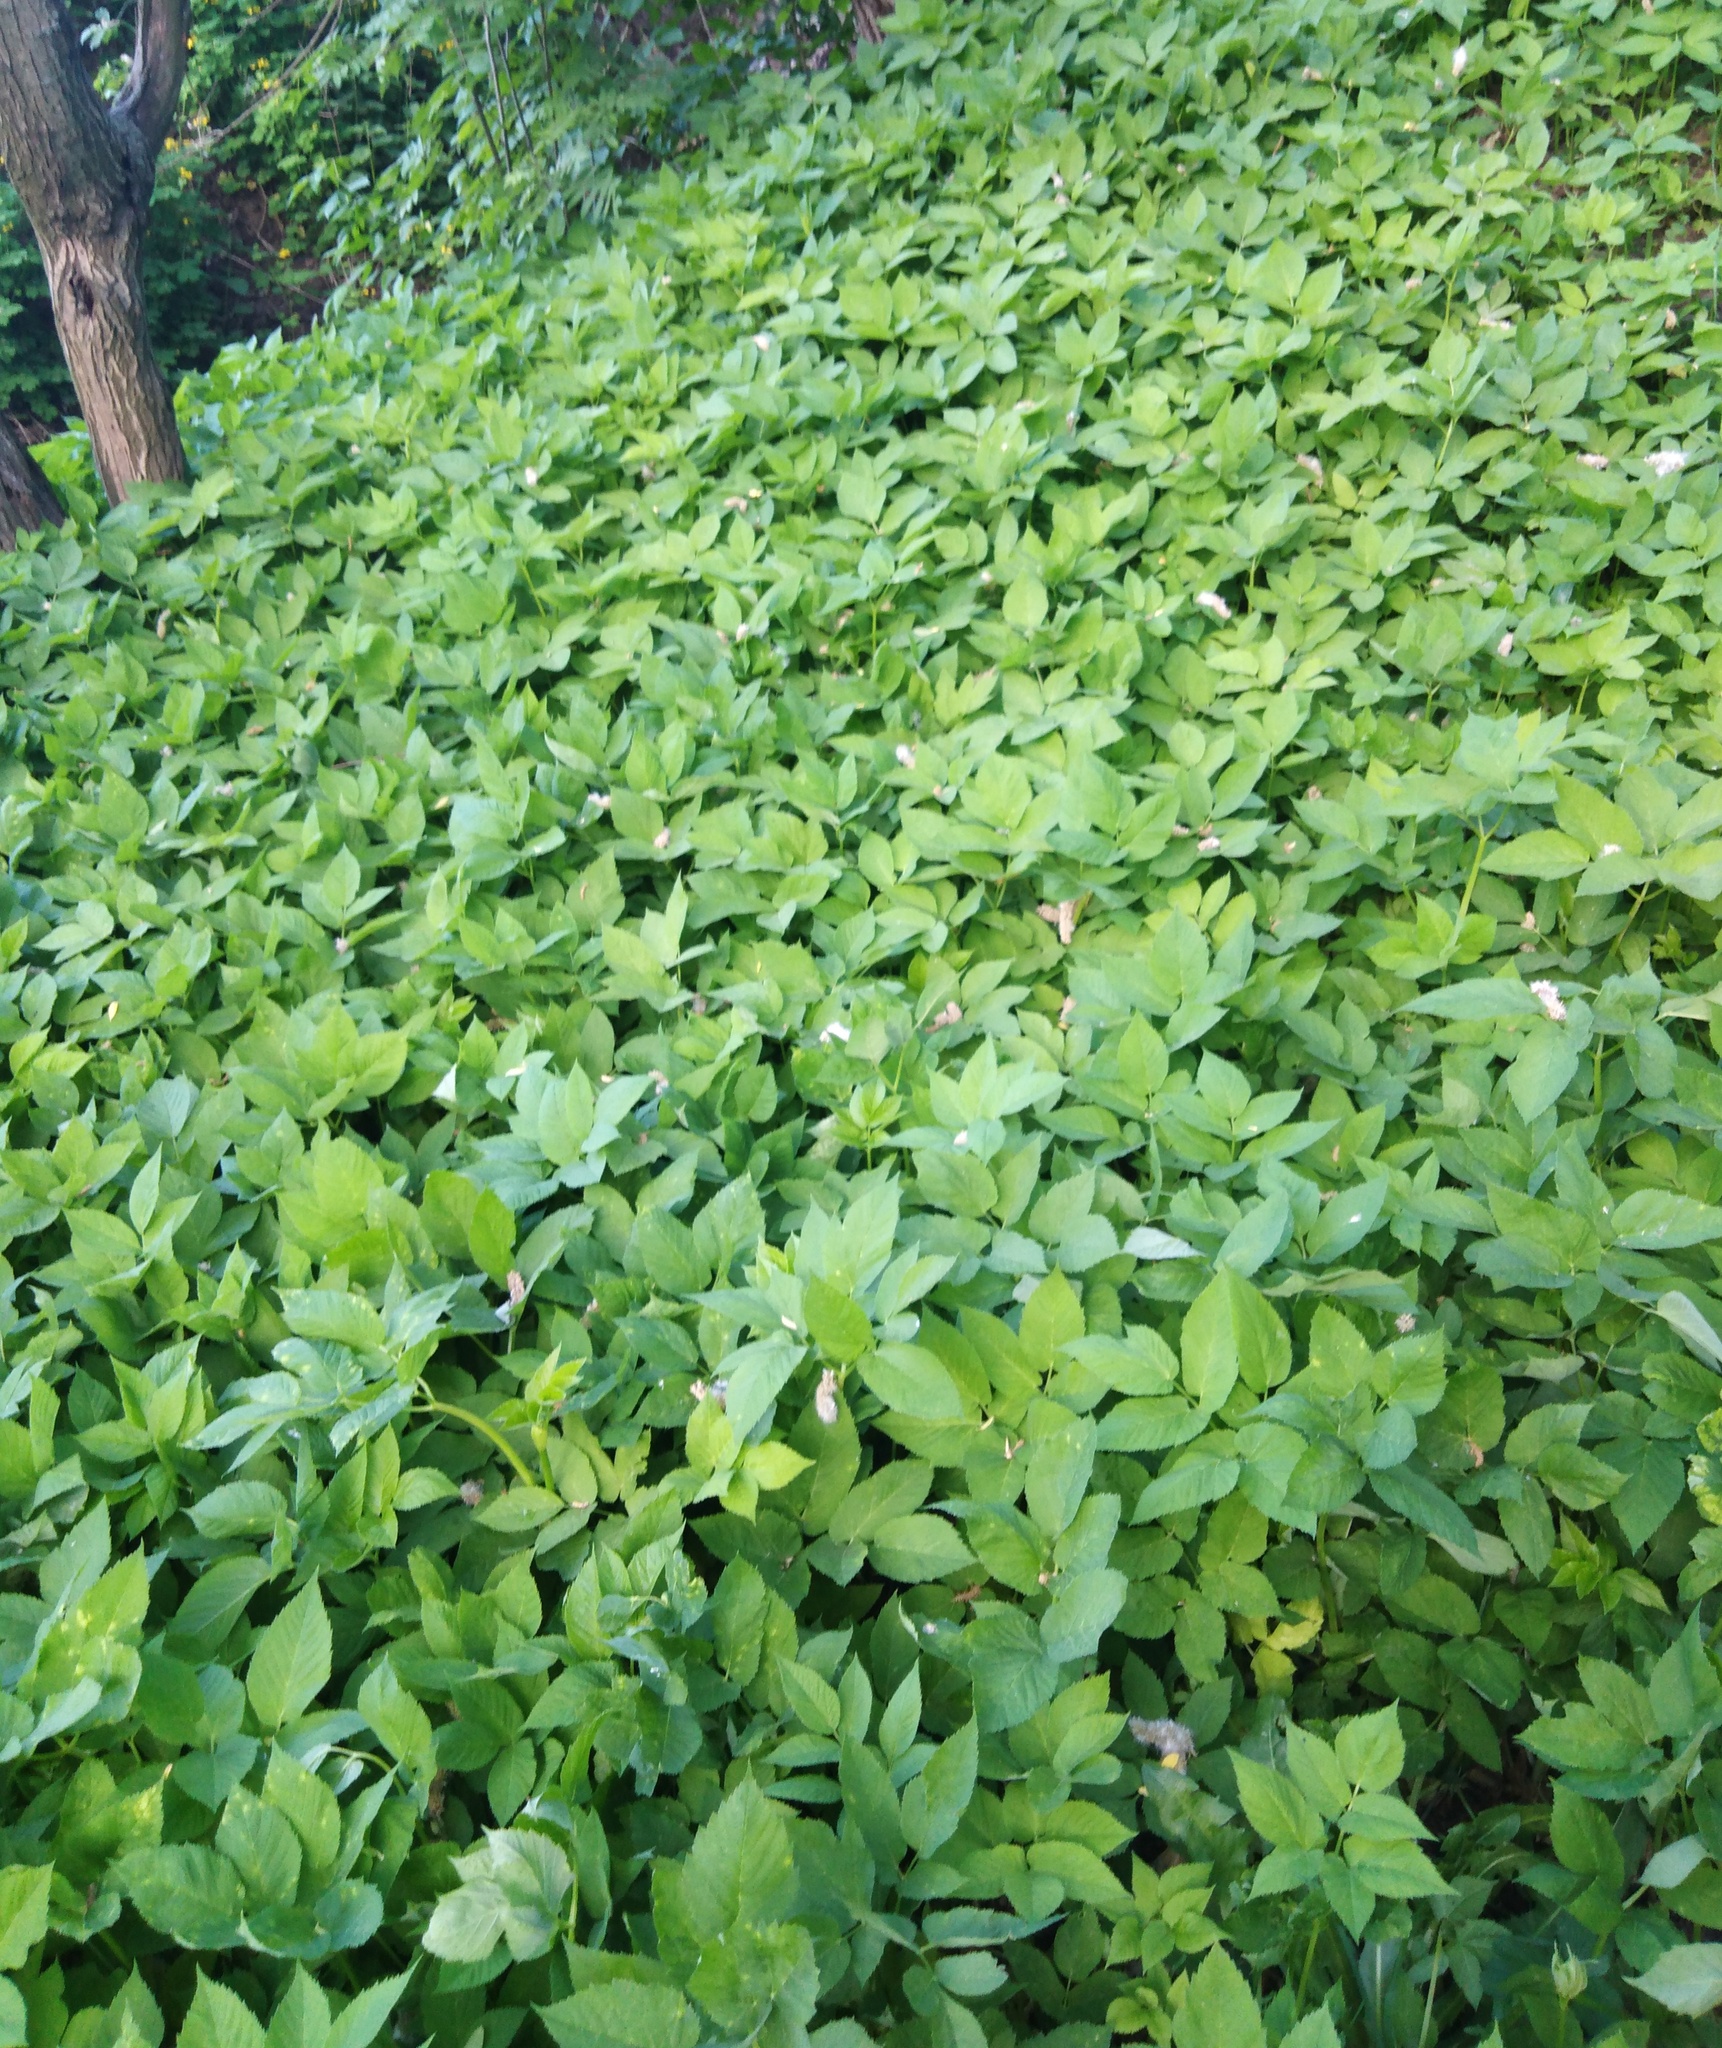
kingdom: Plantae
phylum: Tracheophyta
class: Magnoliopsida
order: Apiales
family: Apiaceae
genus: Aegopodium
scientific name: Aegopodium podagraria
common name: Ground-elder
